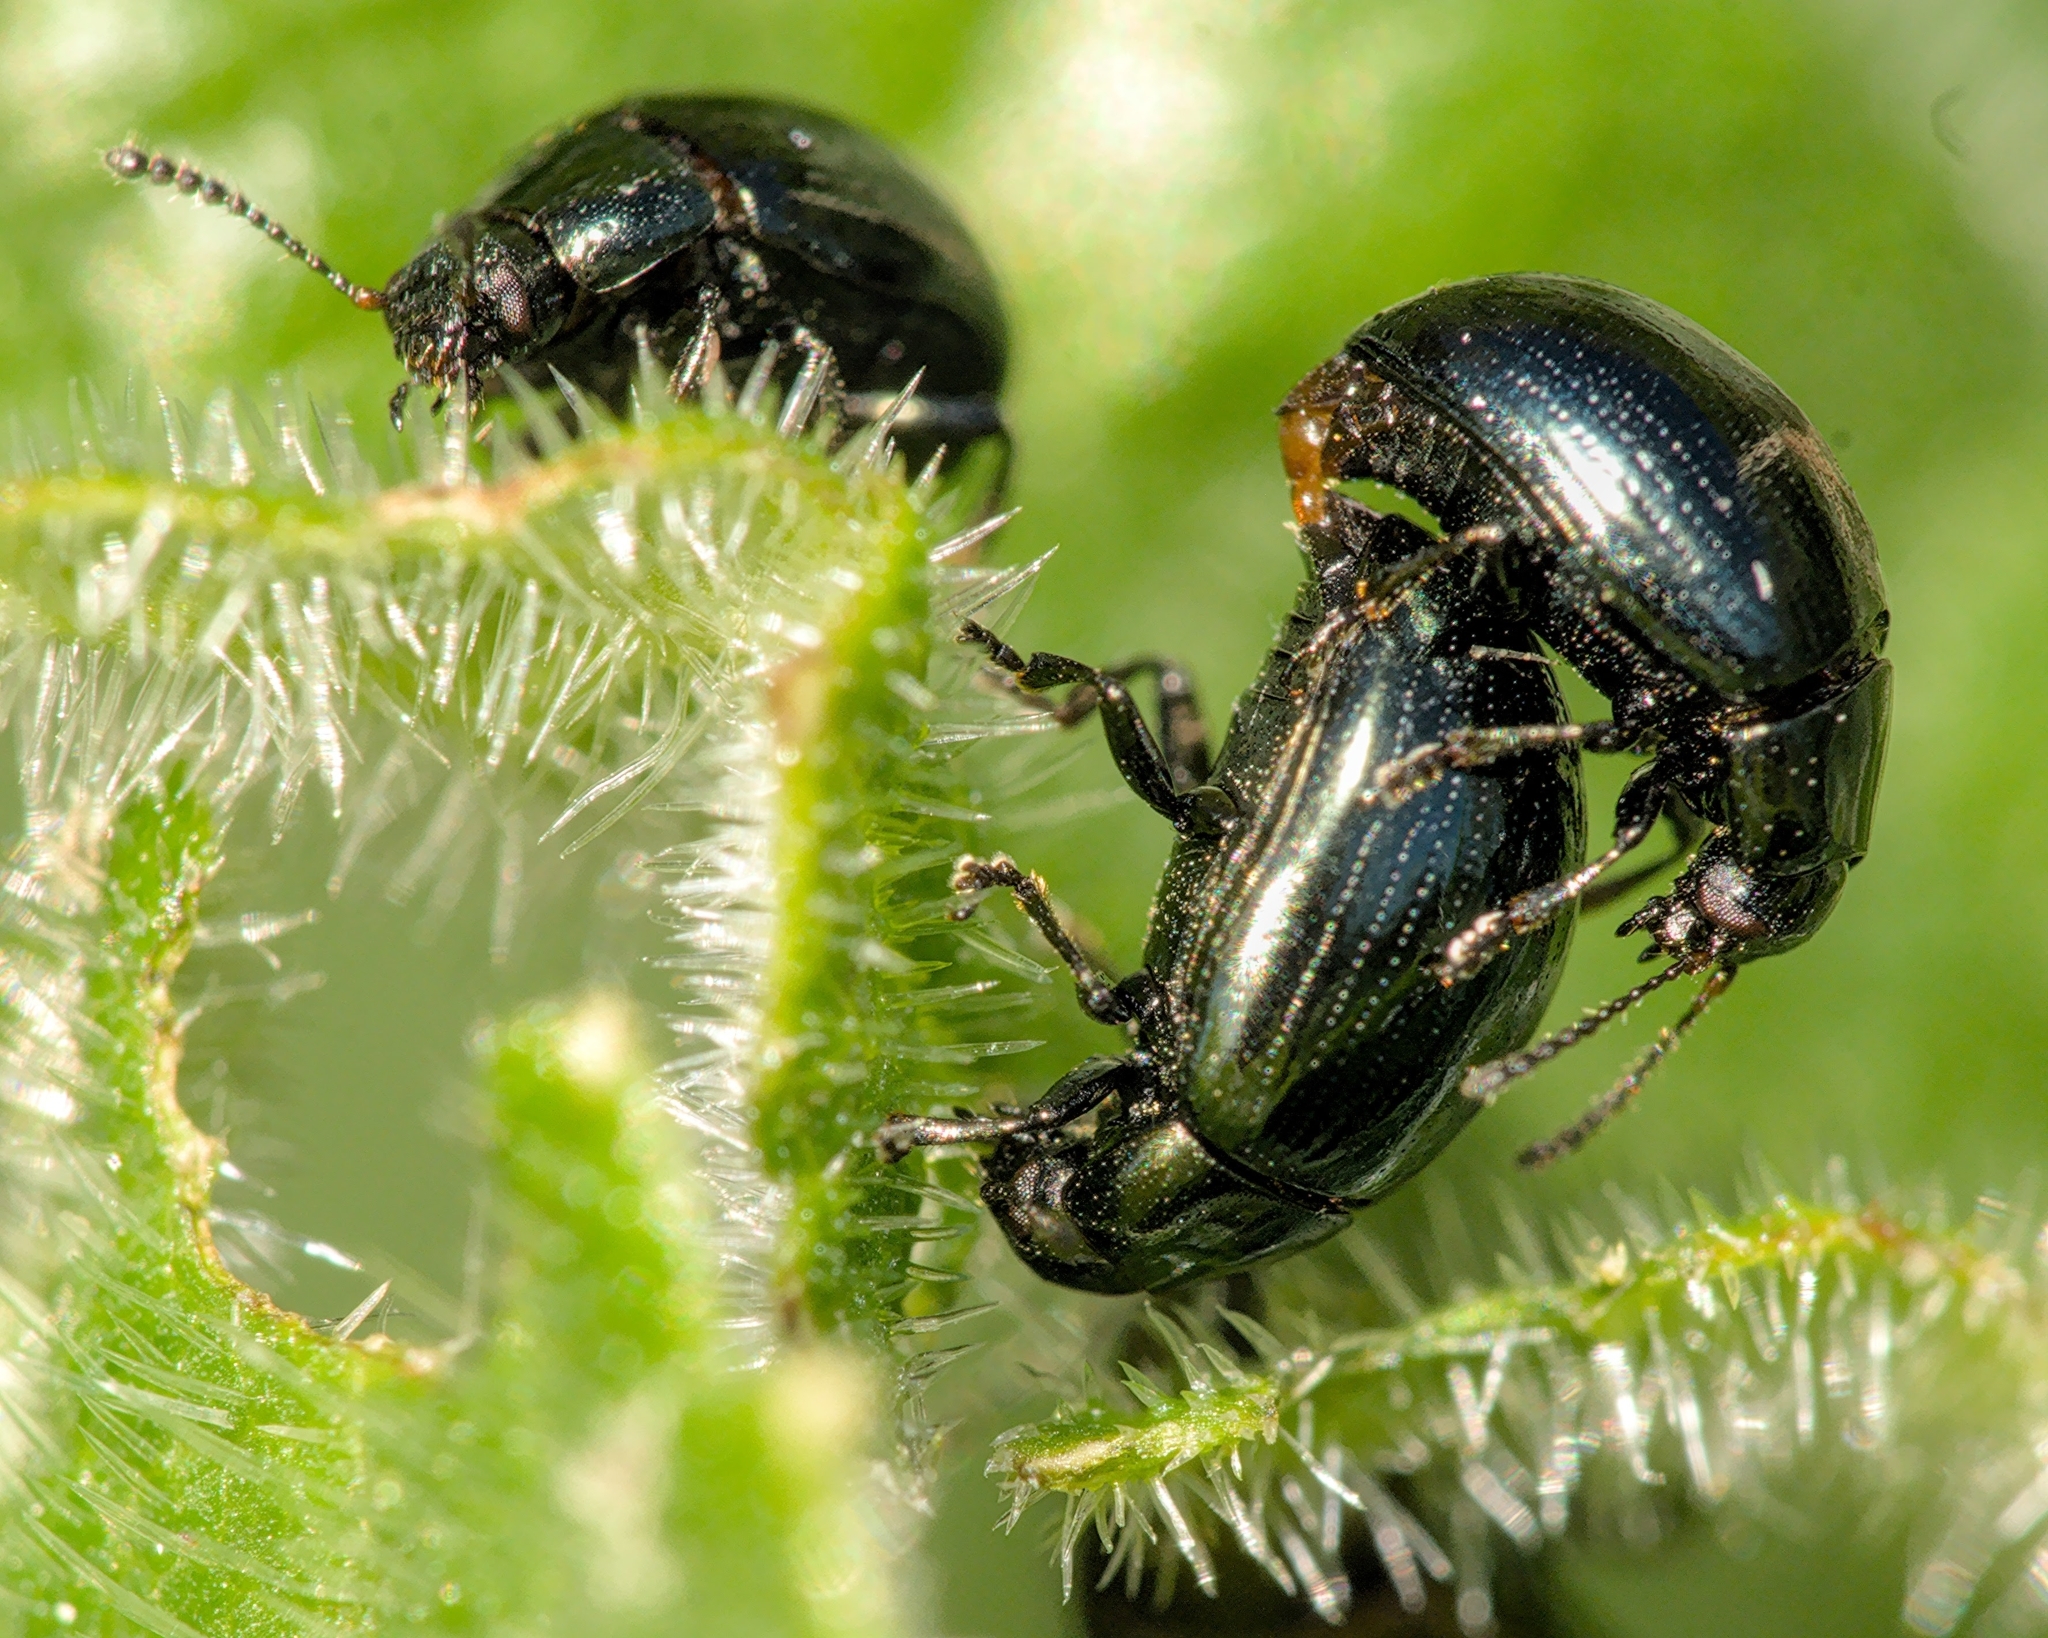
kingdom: Animalia
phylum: Arthropoda
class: Insecta
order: Coleoptera
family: Chrysomelidae
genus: Phaedon
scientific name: Phaedon tumidulus
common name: Celery leaf beetle
